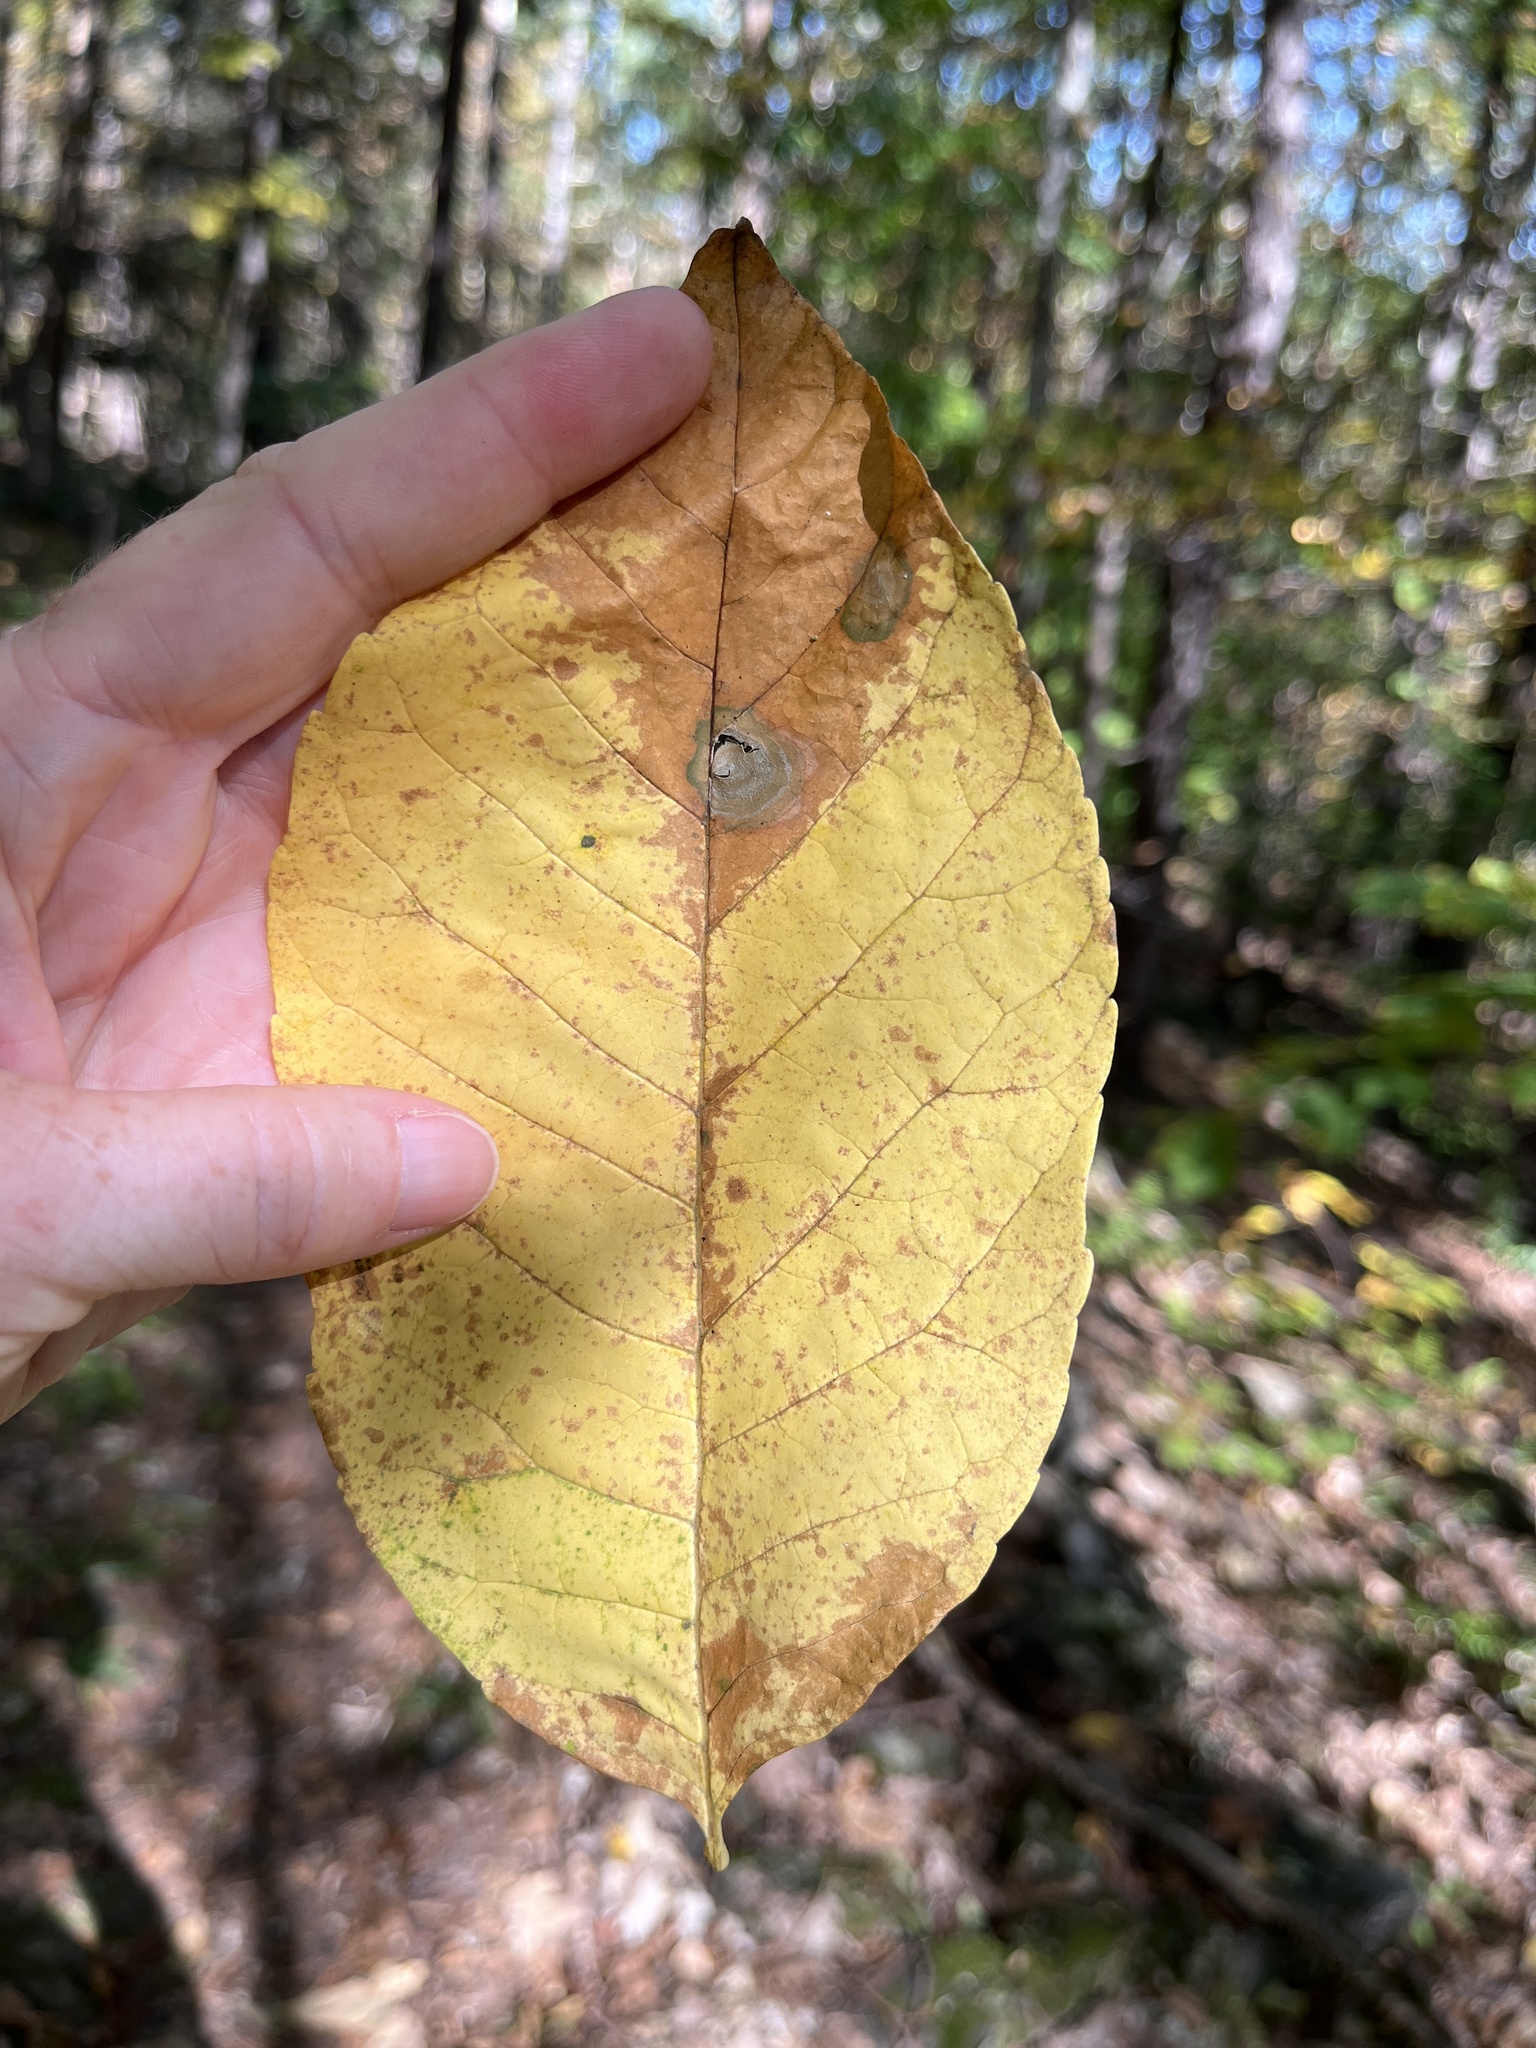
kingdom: Plantae
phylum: Tracheophyta
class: Magnoliopsida
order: Lamiales
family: Oleaceae
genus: Fraxinus
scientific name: Fraxinus americana
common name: White ash
